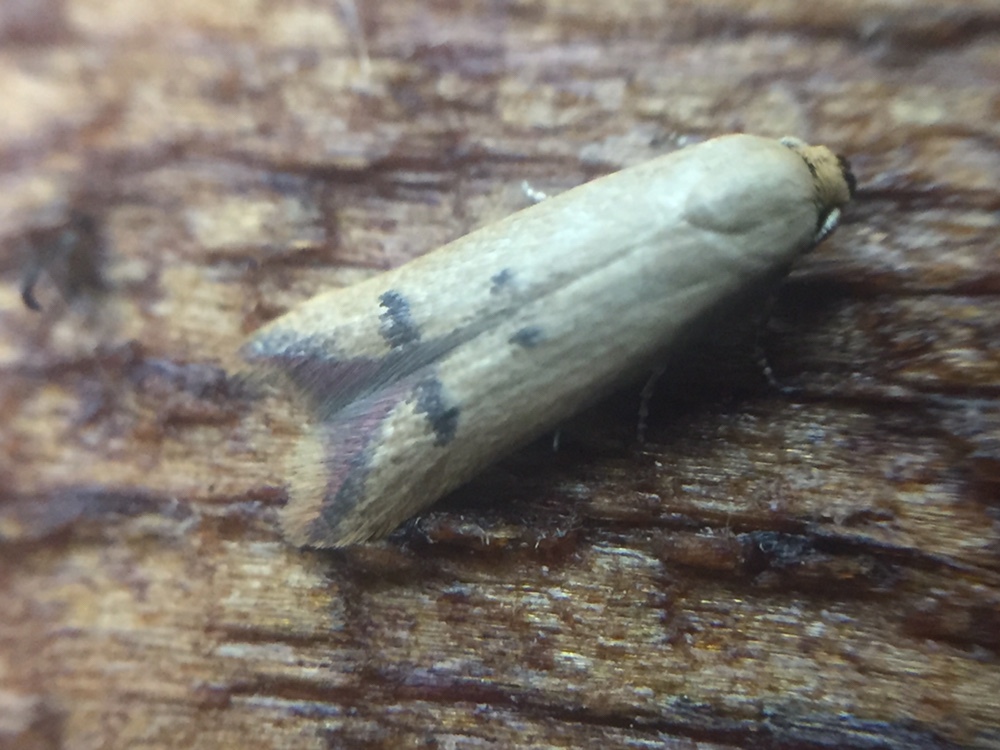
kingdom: Animalia
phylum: Arthropoda
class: Insecta
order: Lepidoptera
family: Oecophoridae
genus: Tachystola
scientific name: Tachystola hemisema
